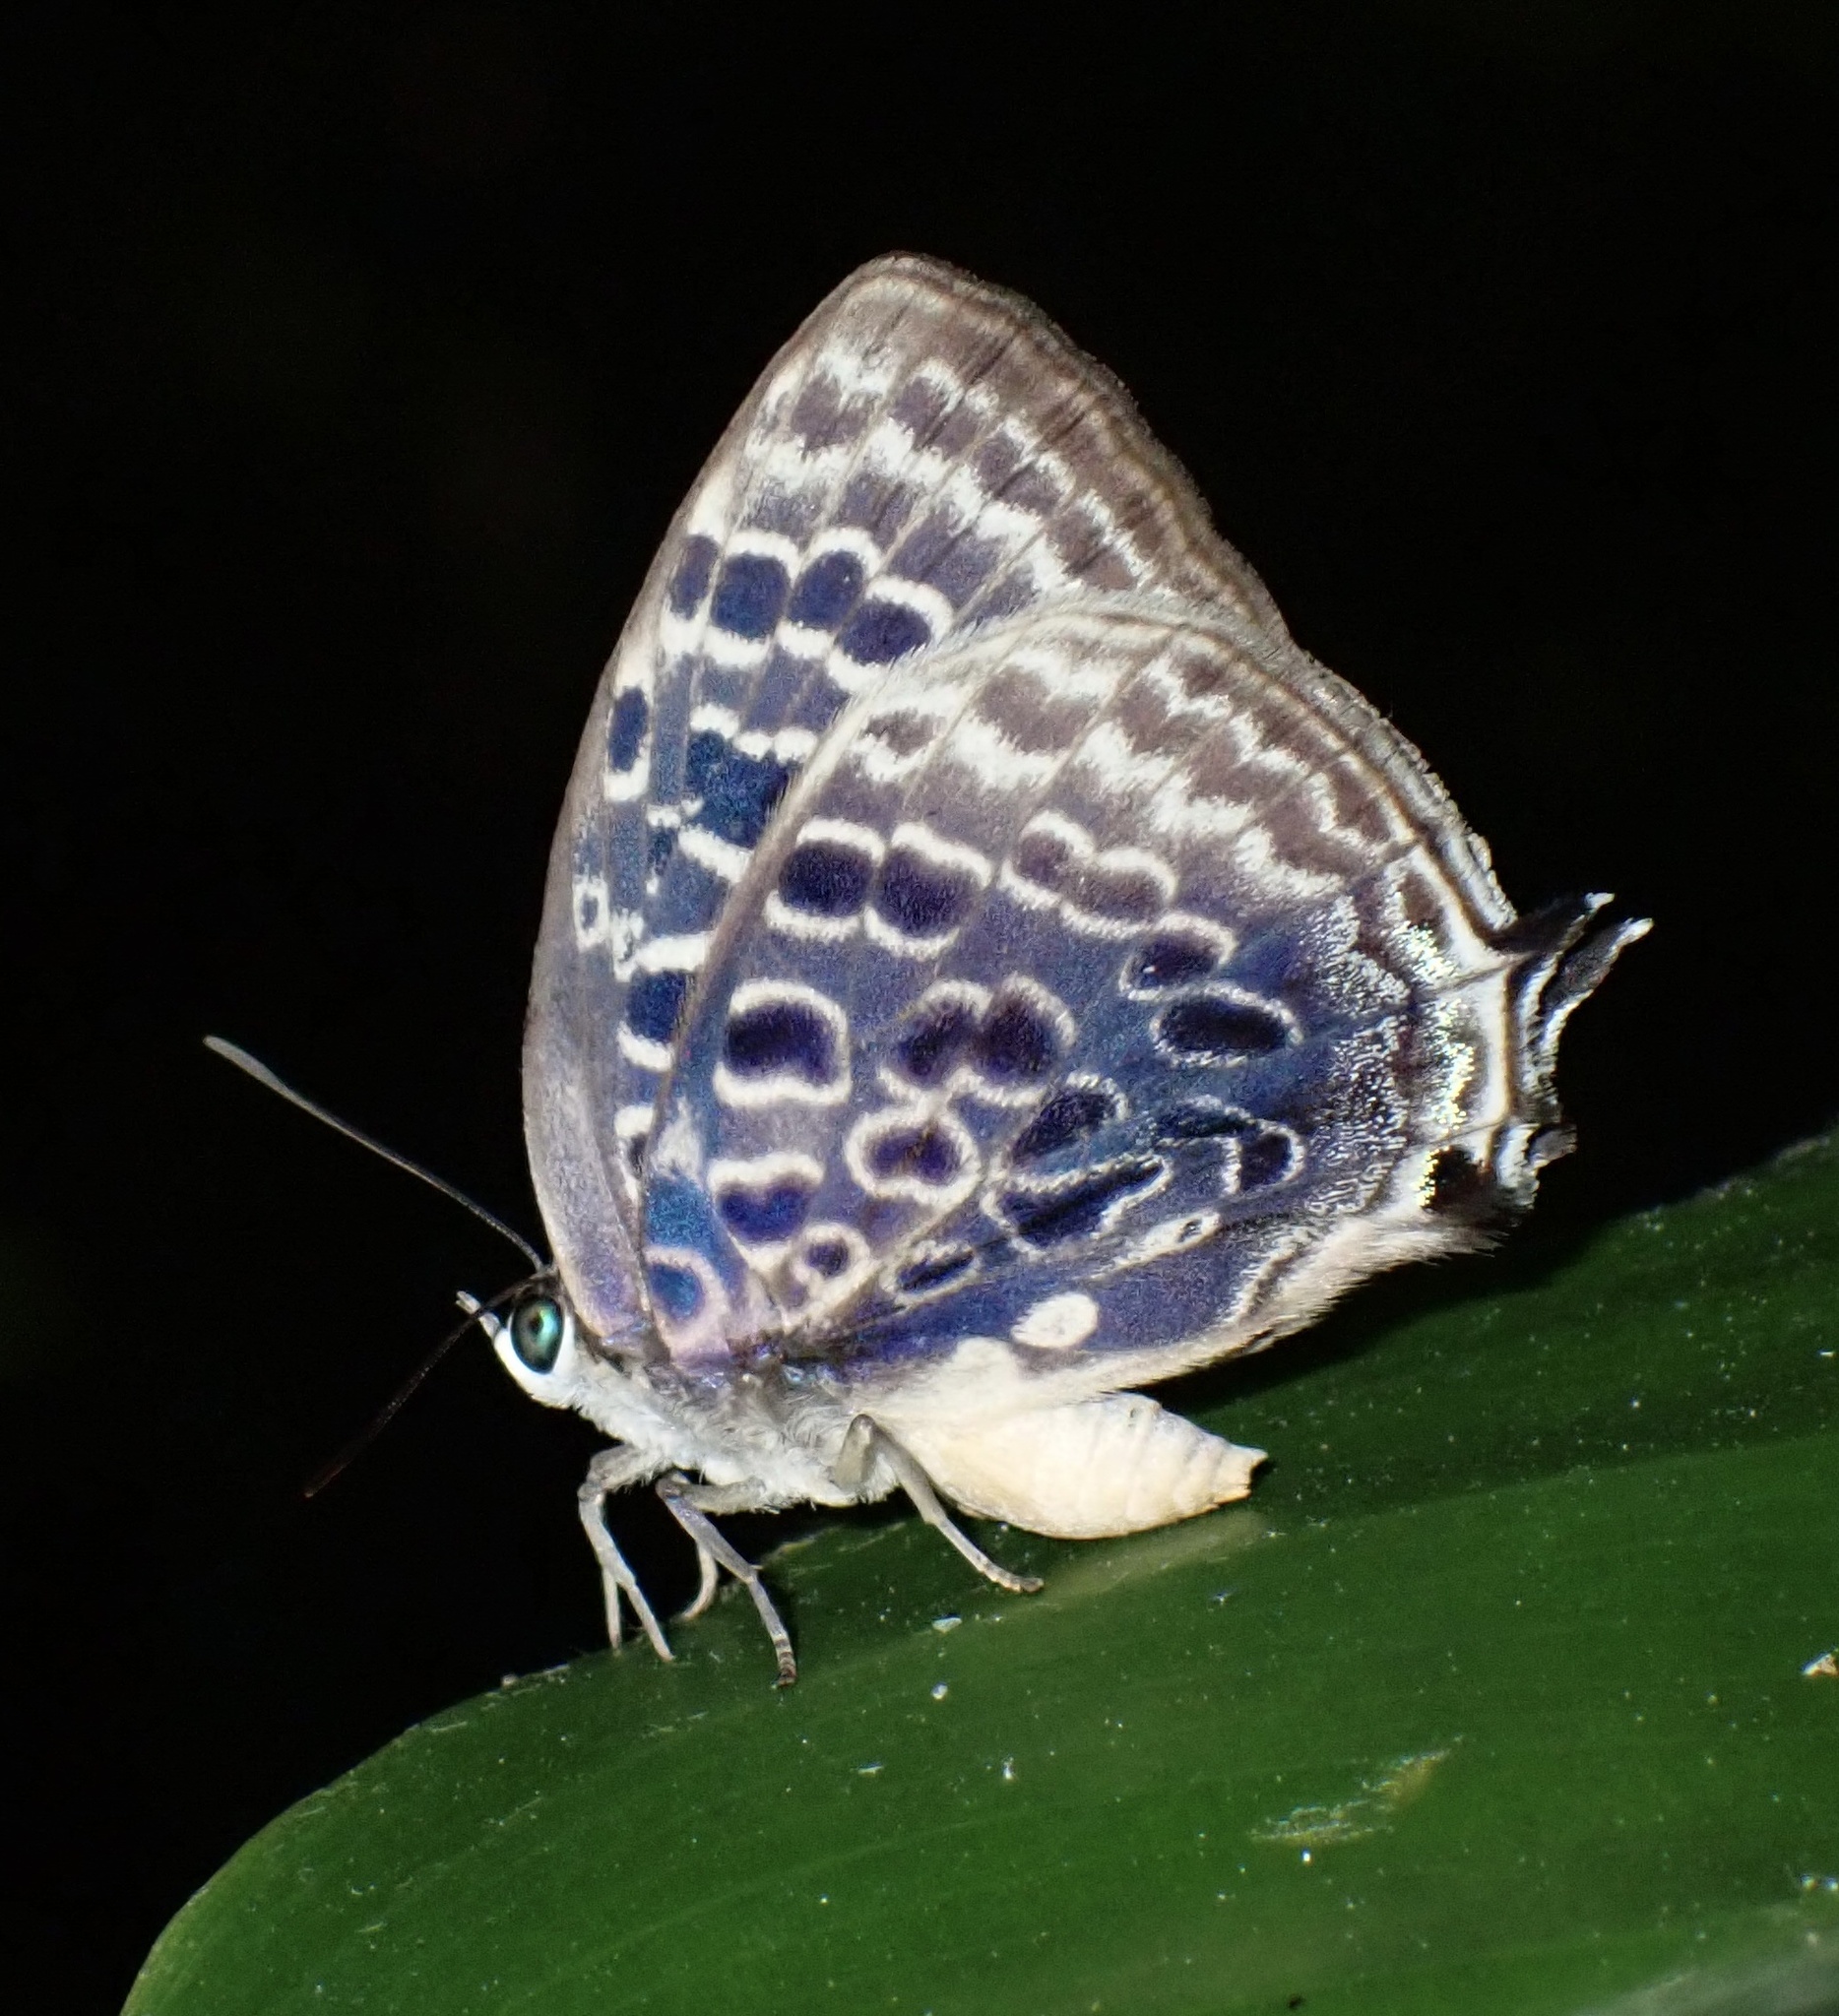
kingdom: Animalia
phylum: Arthropoda
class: Insecta
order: Lepidoptera
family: Lycaenidae
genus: Arhopala
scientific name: Arhopala thamyras
